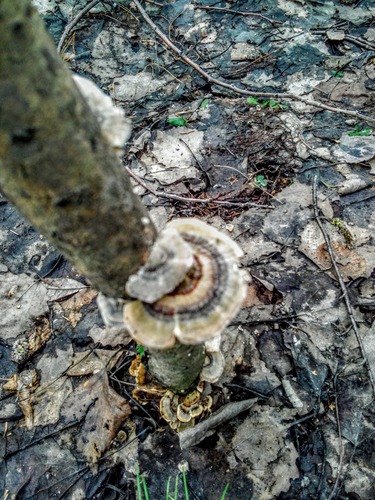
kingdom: Fungi
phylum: Basidiomycota
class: Agaricomycetes
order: Polyporales
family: Polyporaceae
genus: Trametes
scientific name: Trametes versicolor
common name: Turkeytail
